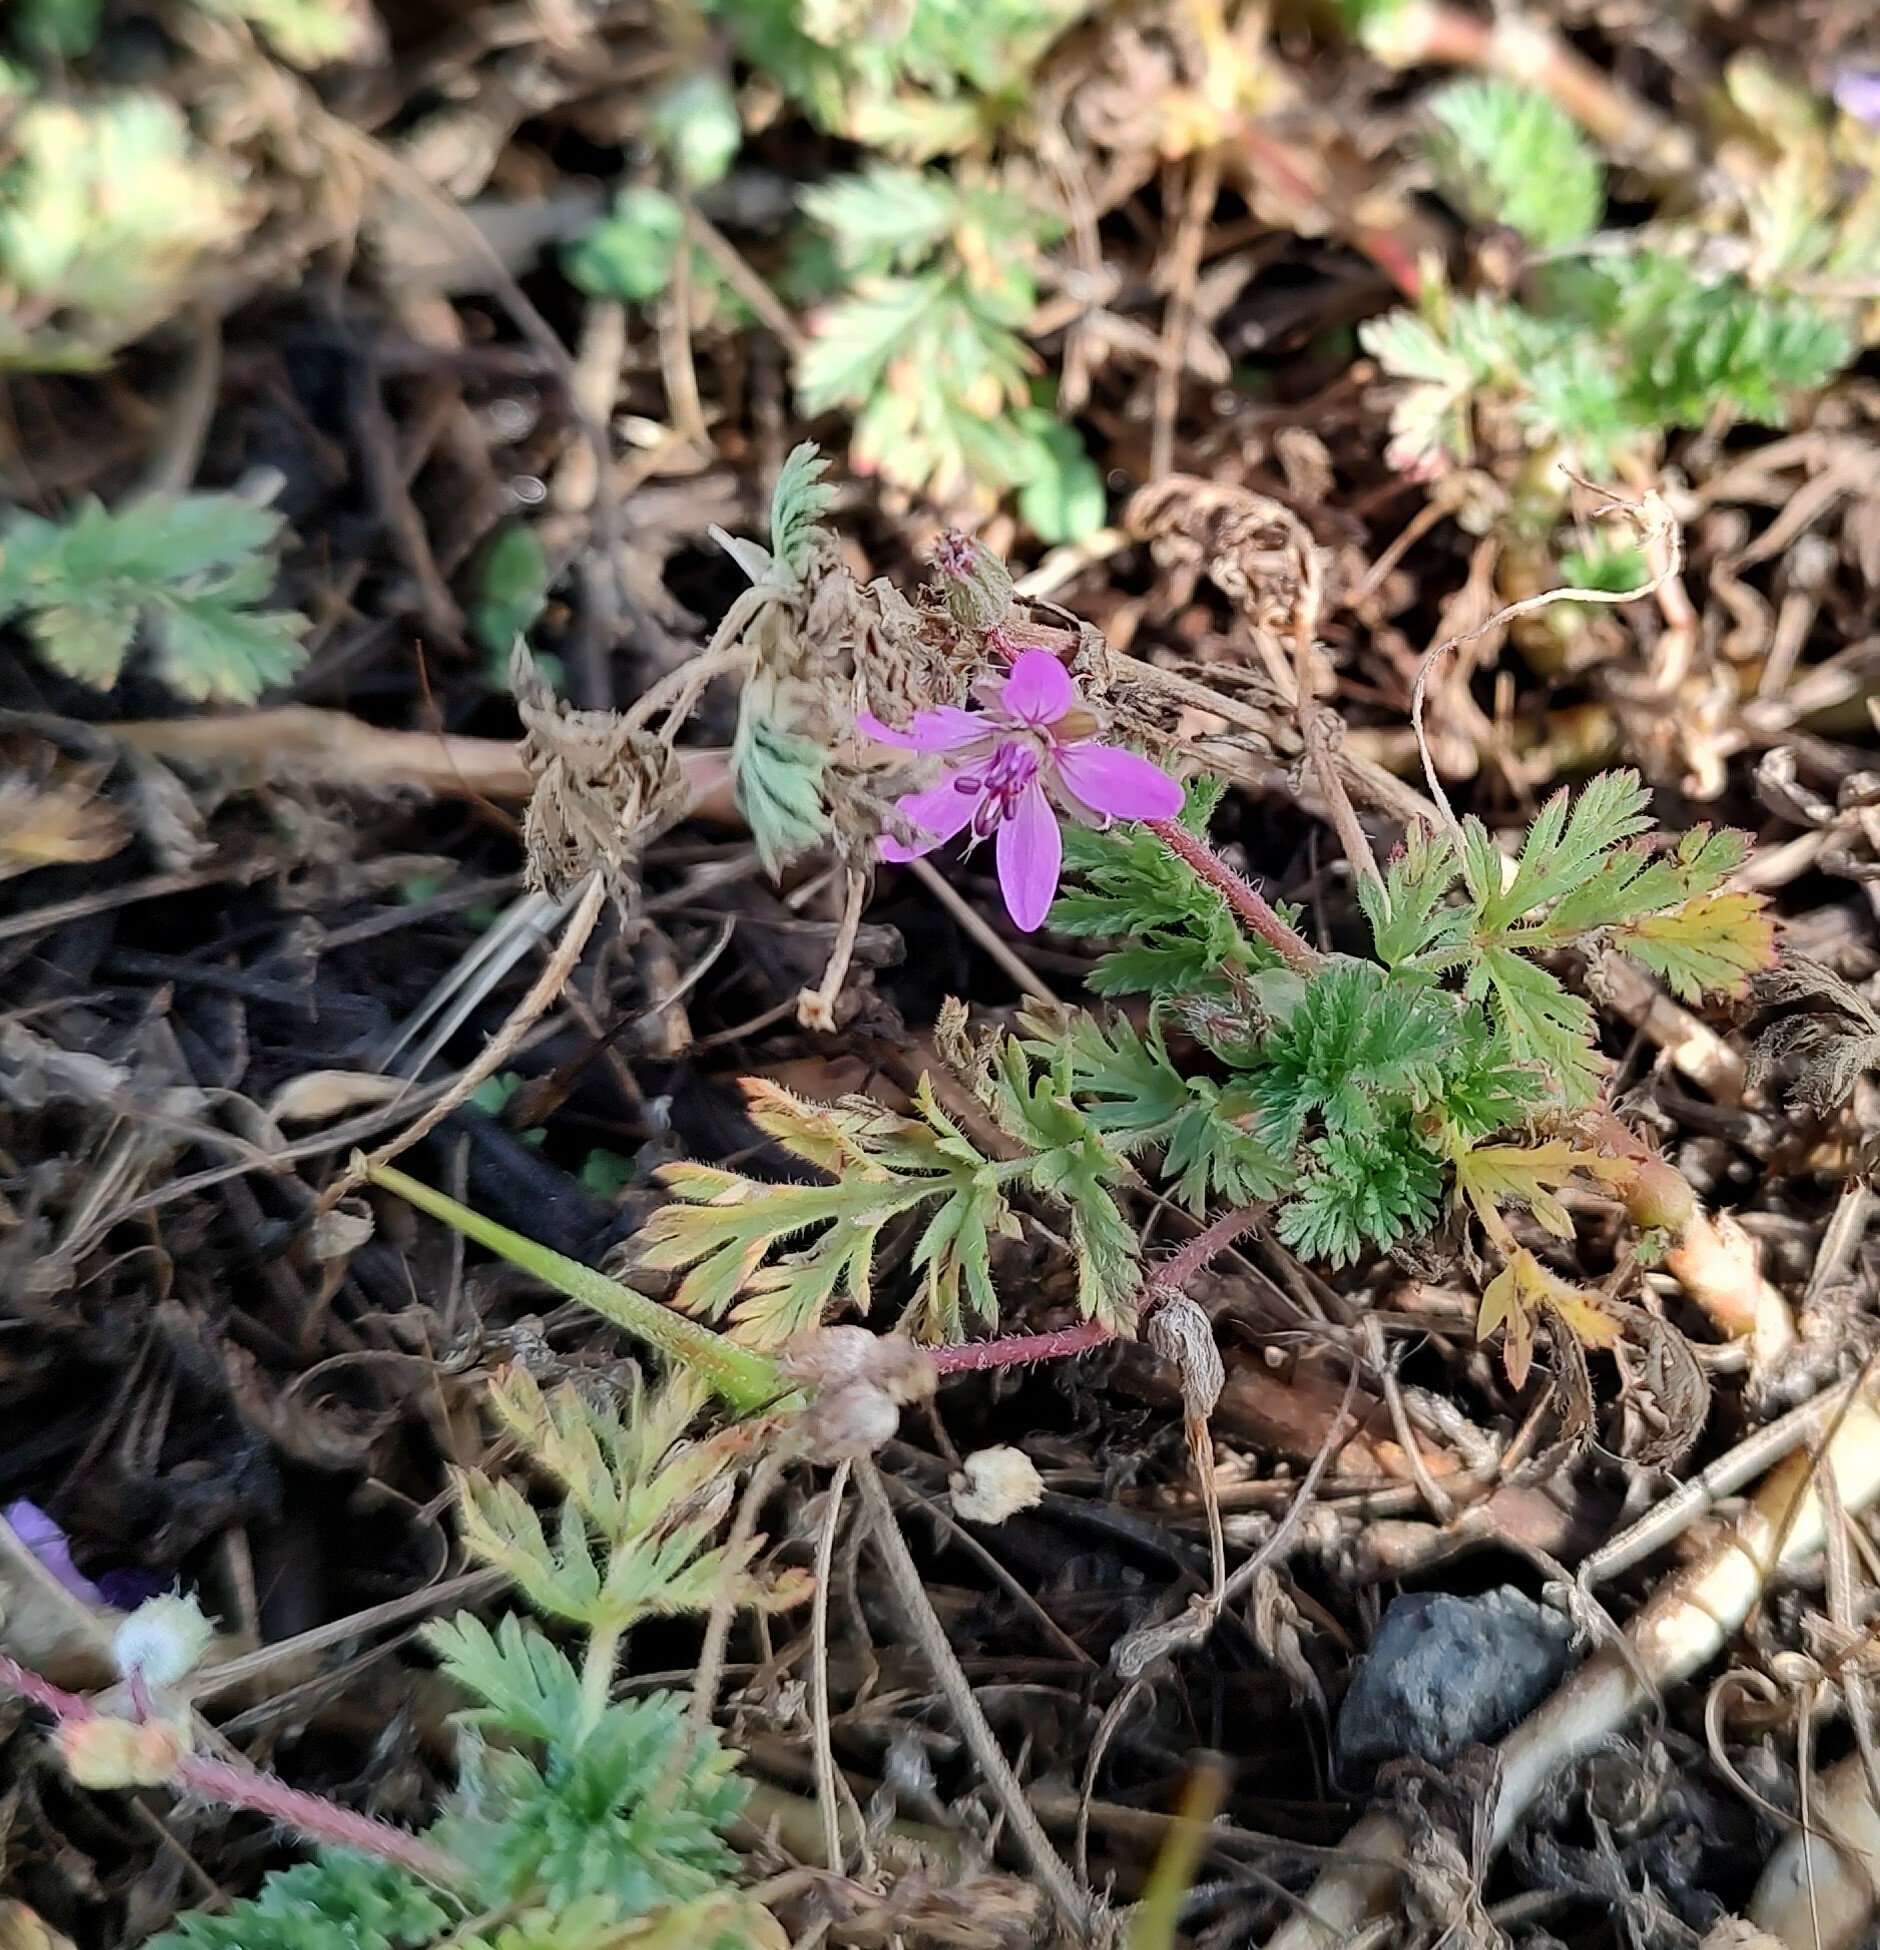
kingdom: Plantae
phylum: Tracheophyta
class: Magnoliopsida
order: Geraniales
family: Geraniaceae
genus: Erodium
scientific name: Erodium cicutarium
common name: Common stork's-bill
